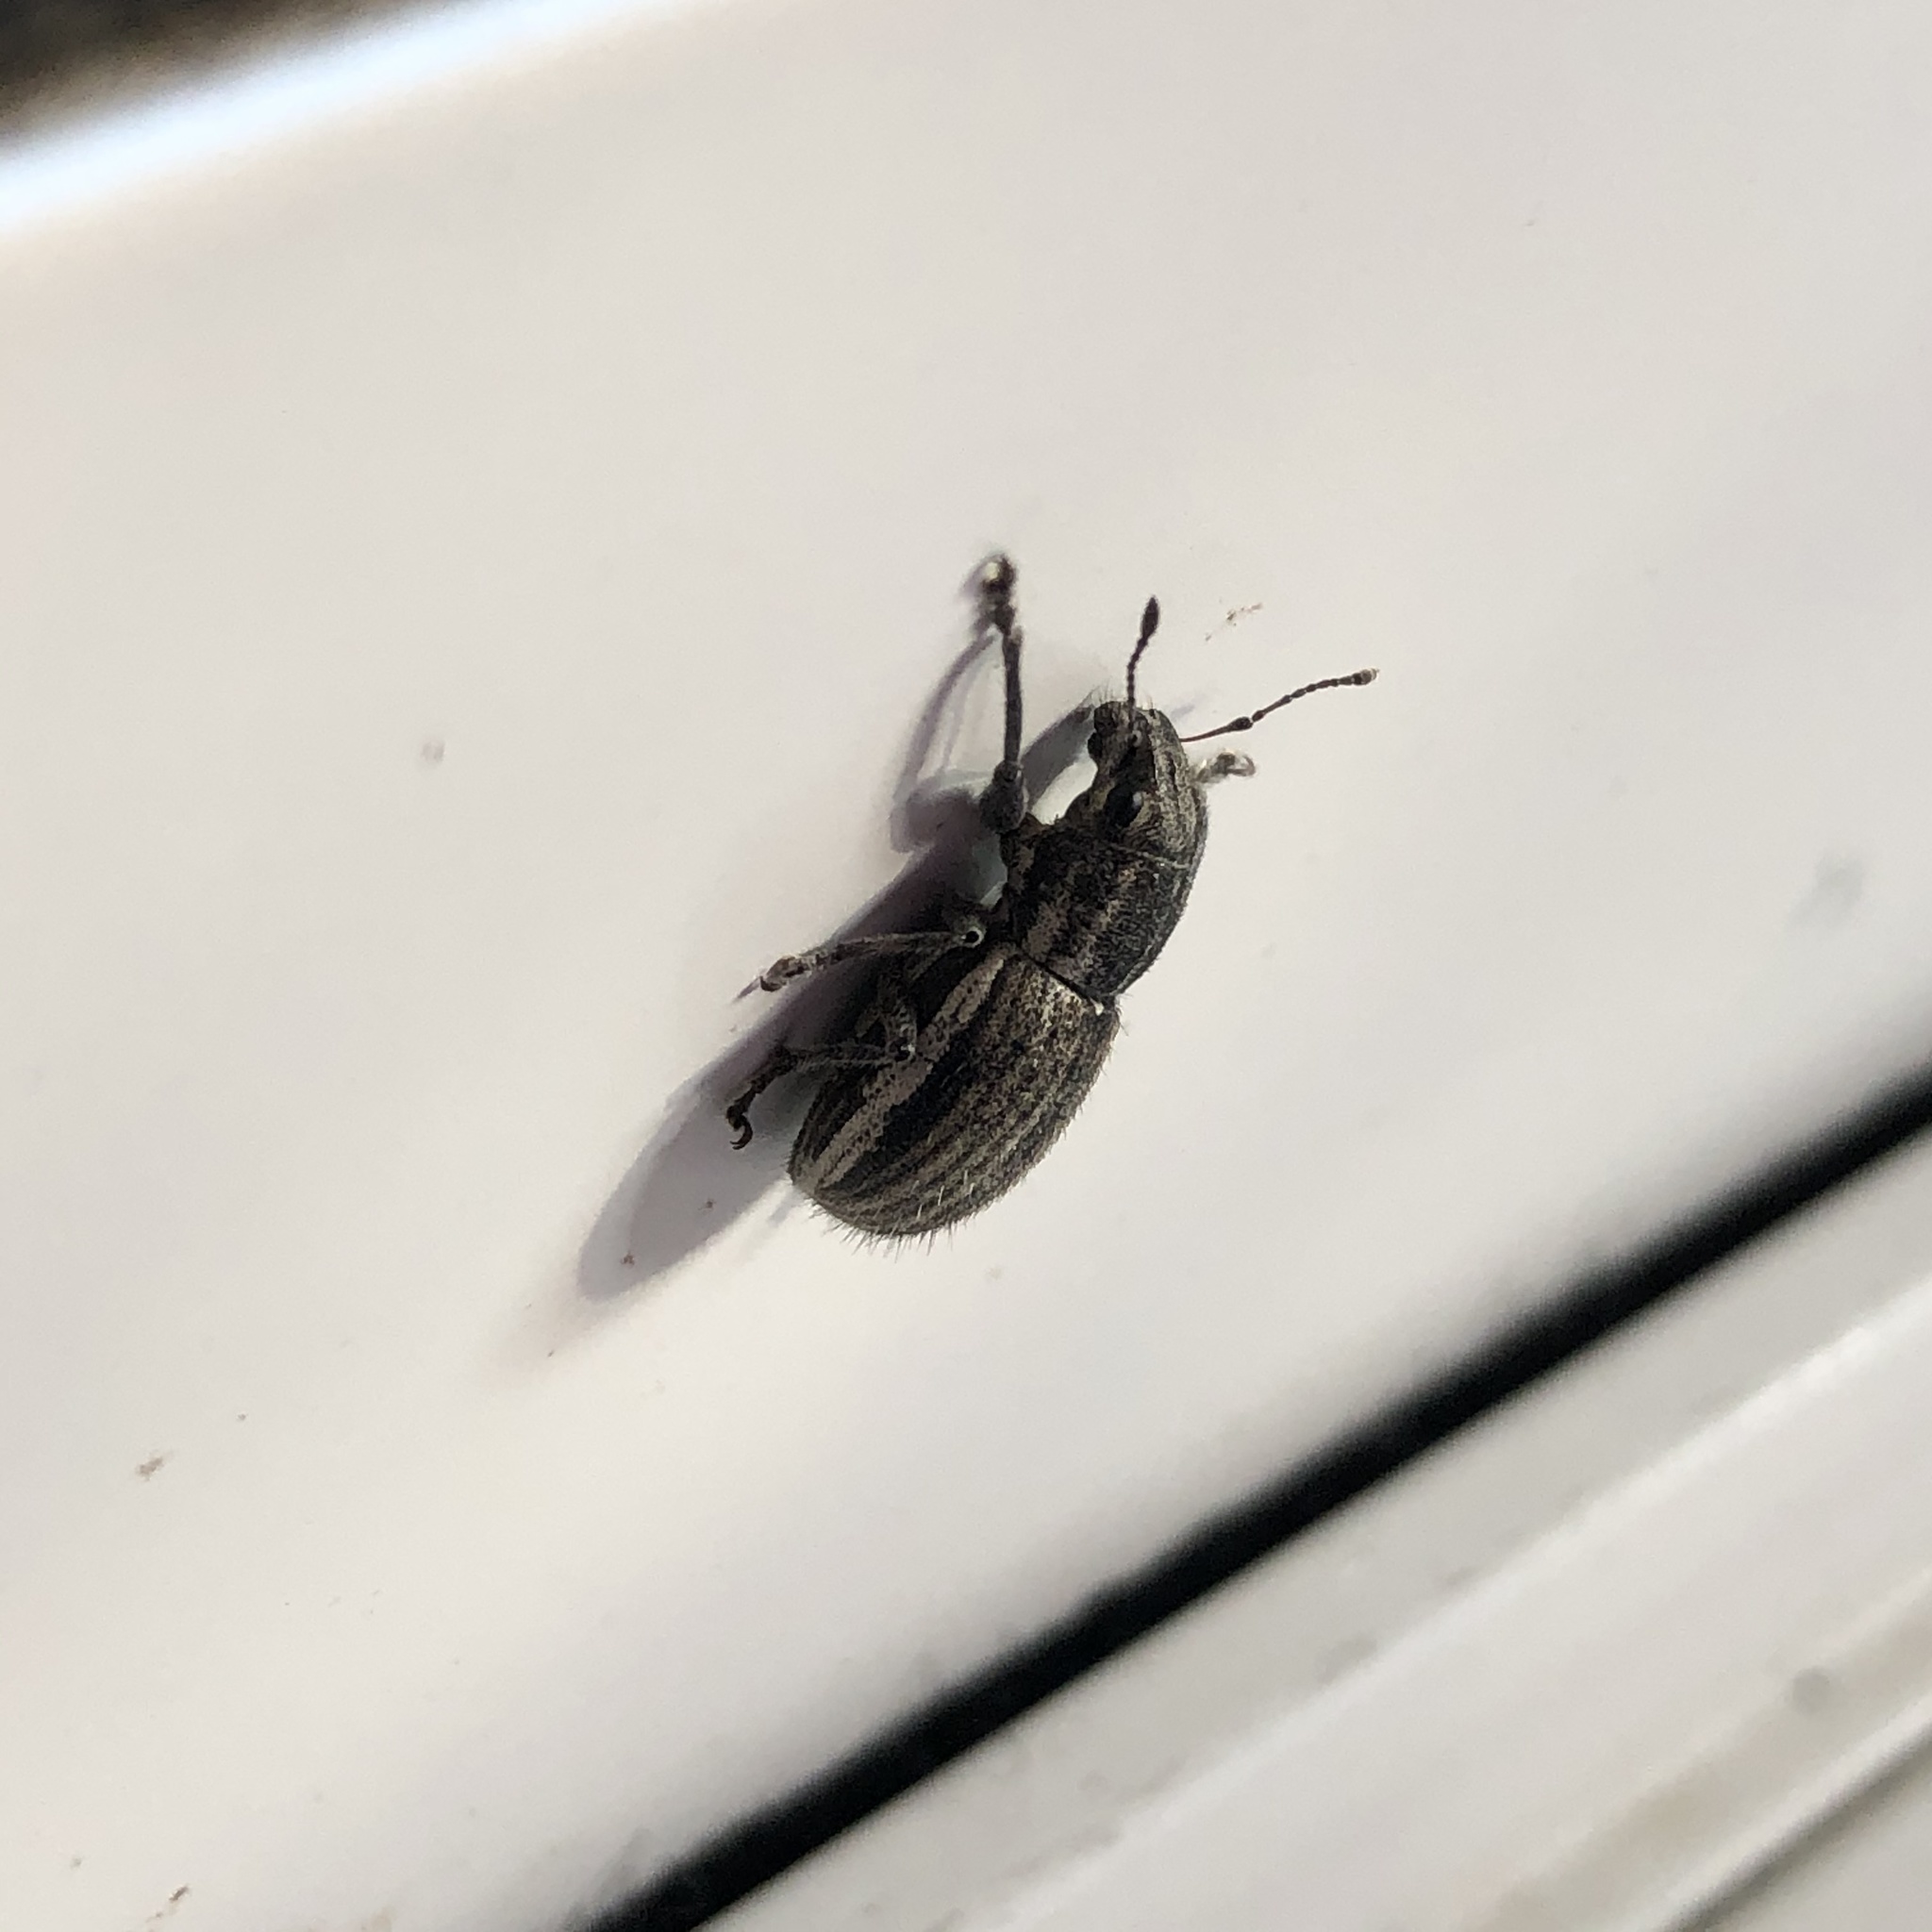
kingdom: Animalia
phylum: Arthropoda
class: Insecta
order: Coleoptera
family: Curculionidae
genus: Naupactus
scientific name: Naupactus leucoloma
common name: Whitefringed beetle
